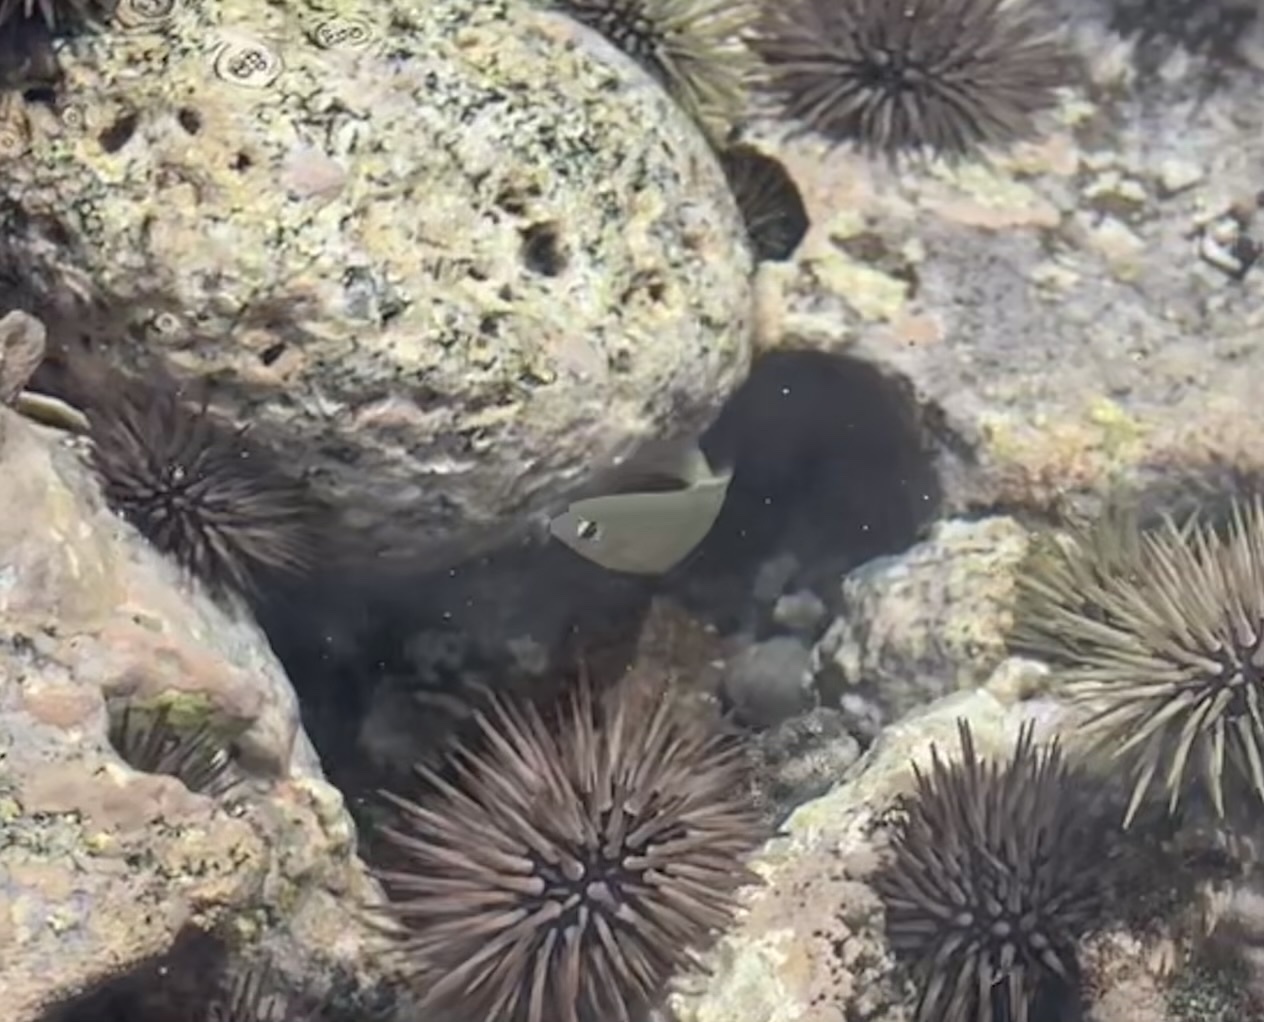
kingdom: Animalia
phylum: Chordata
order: Perciformes
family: Pomacentridae
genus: Plectroglyphidodon
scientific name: Plectroglyphidodon imparipennis
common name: Brighteye damsel
